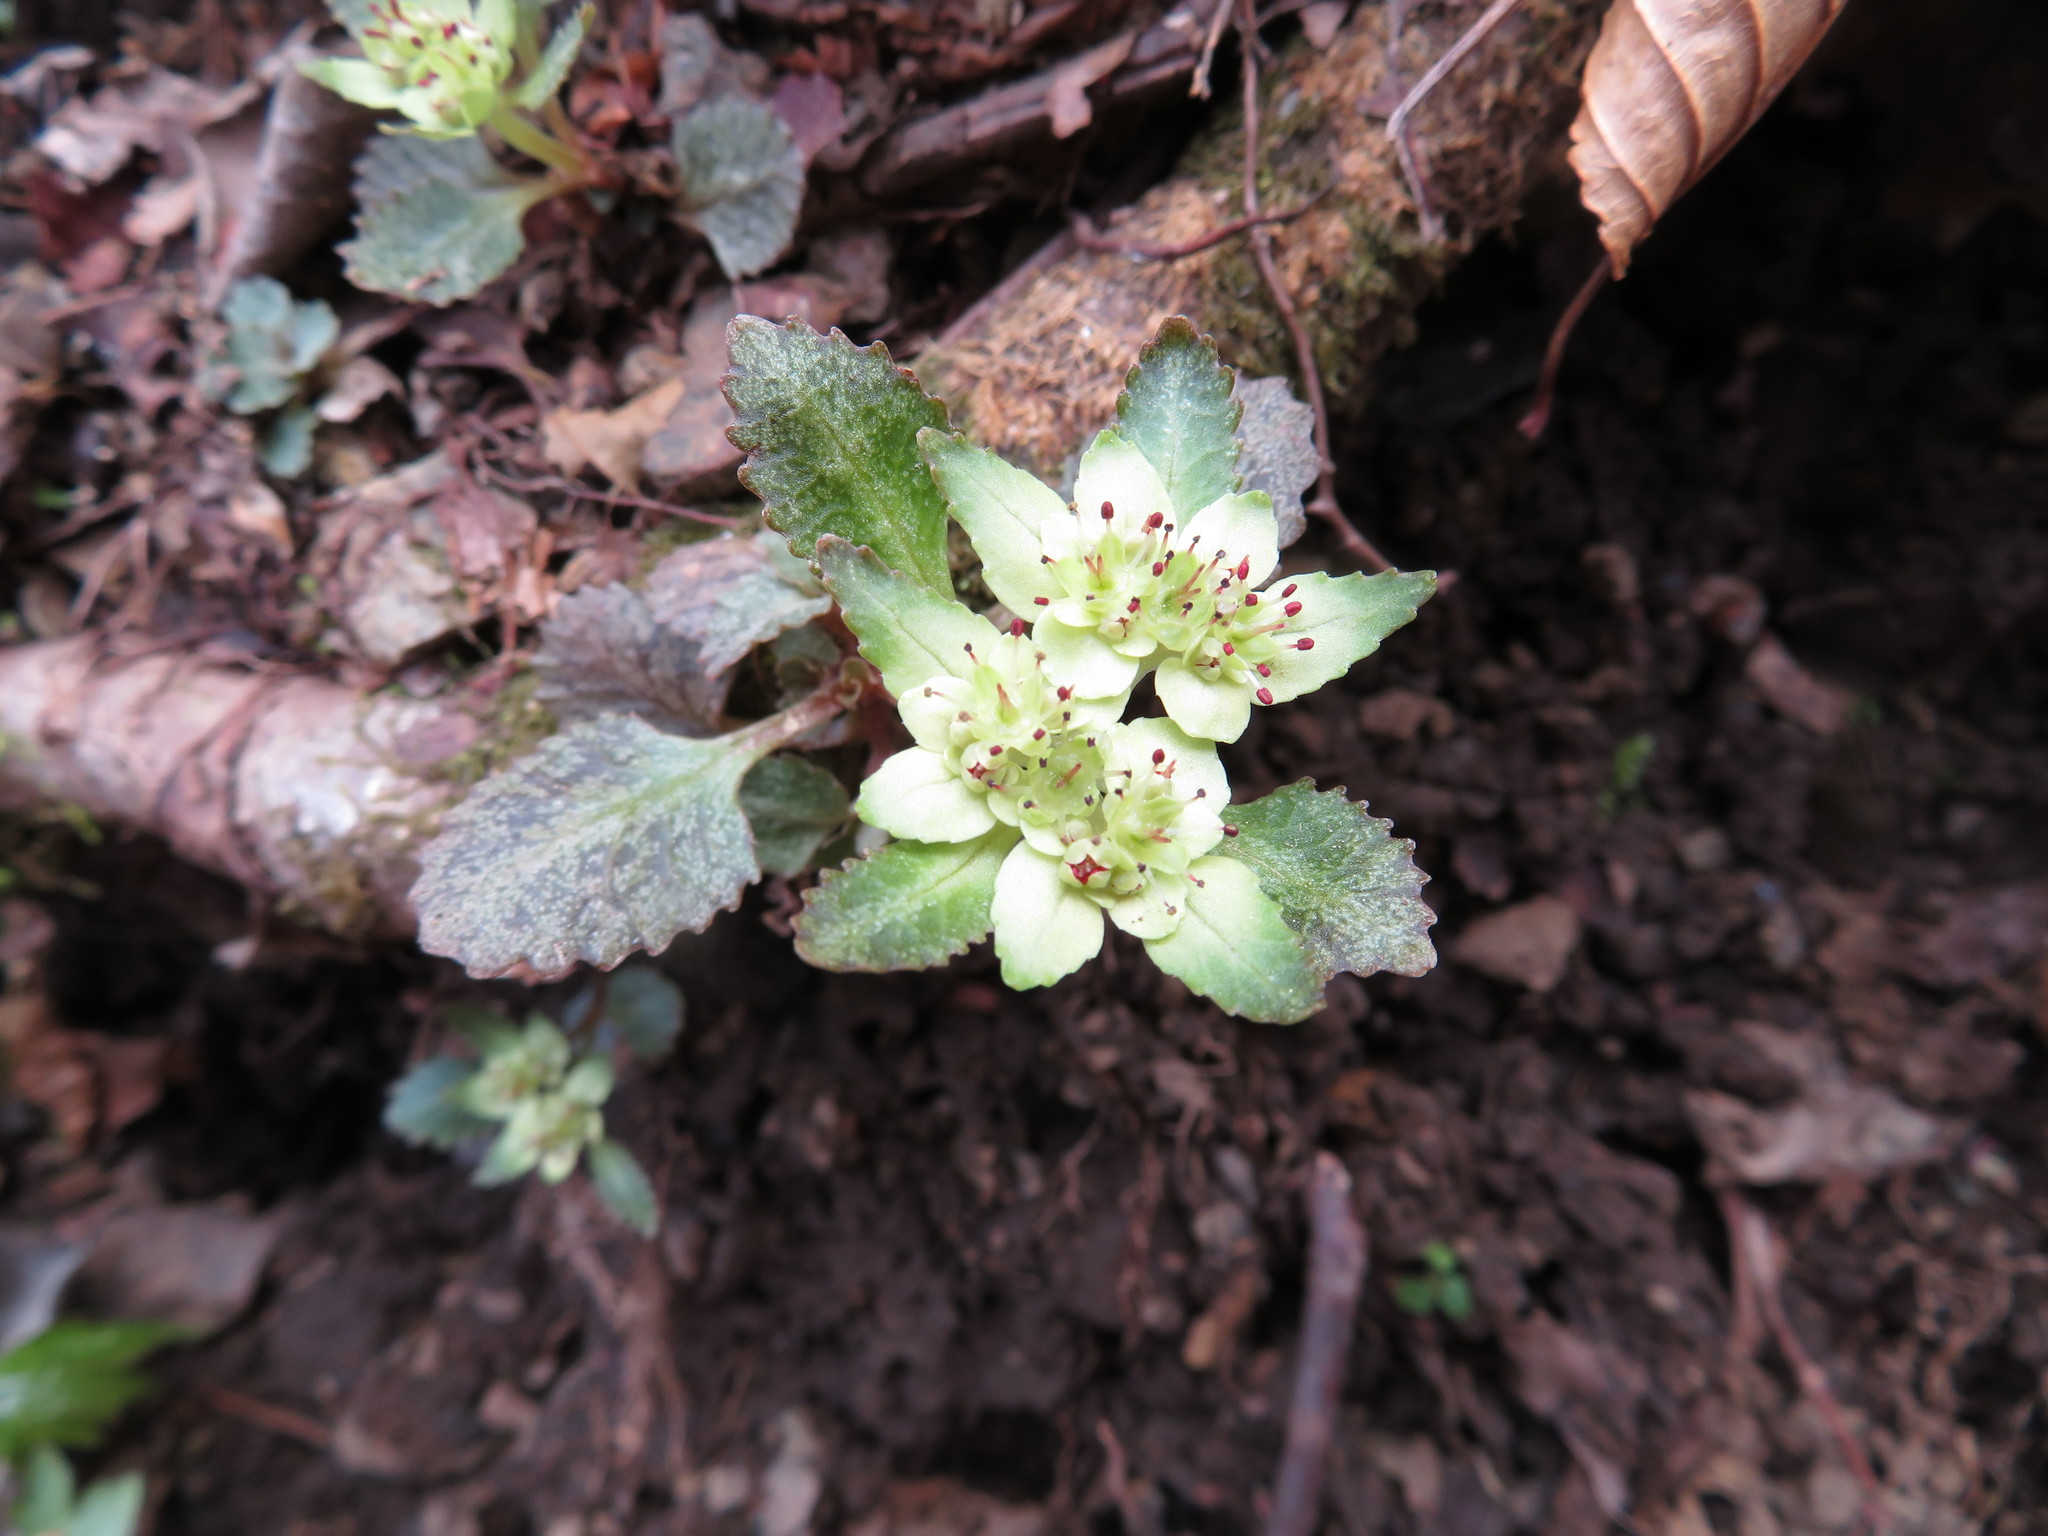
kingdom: Plantae
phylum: Tracheophyta
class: Magnoliopsida
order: Saxifragales
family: Saxifragaceae
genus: Chrysosplenium
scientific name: Chrysosplenium macrostemon
